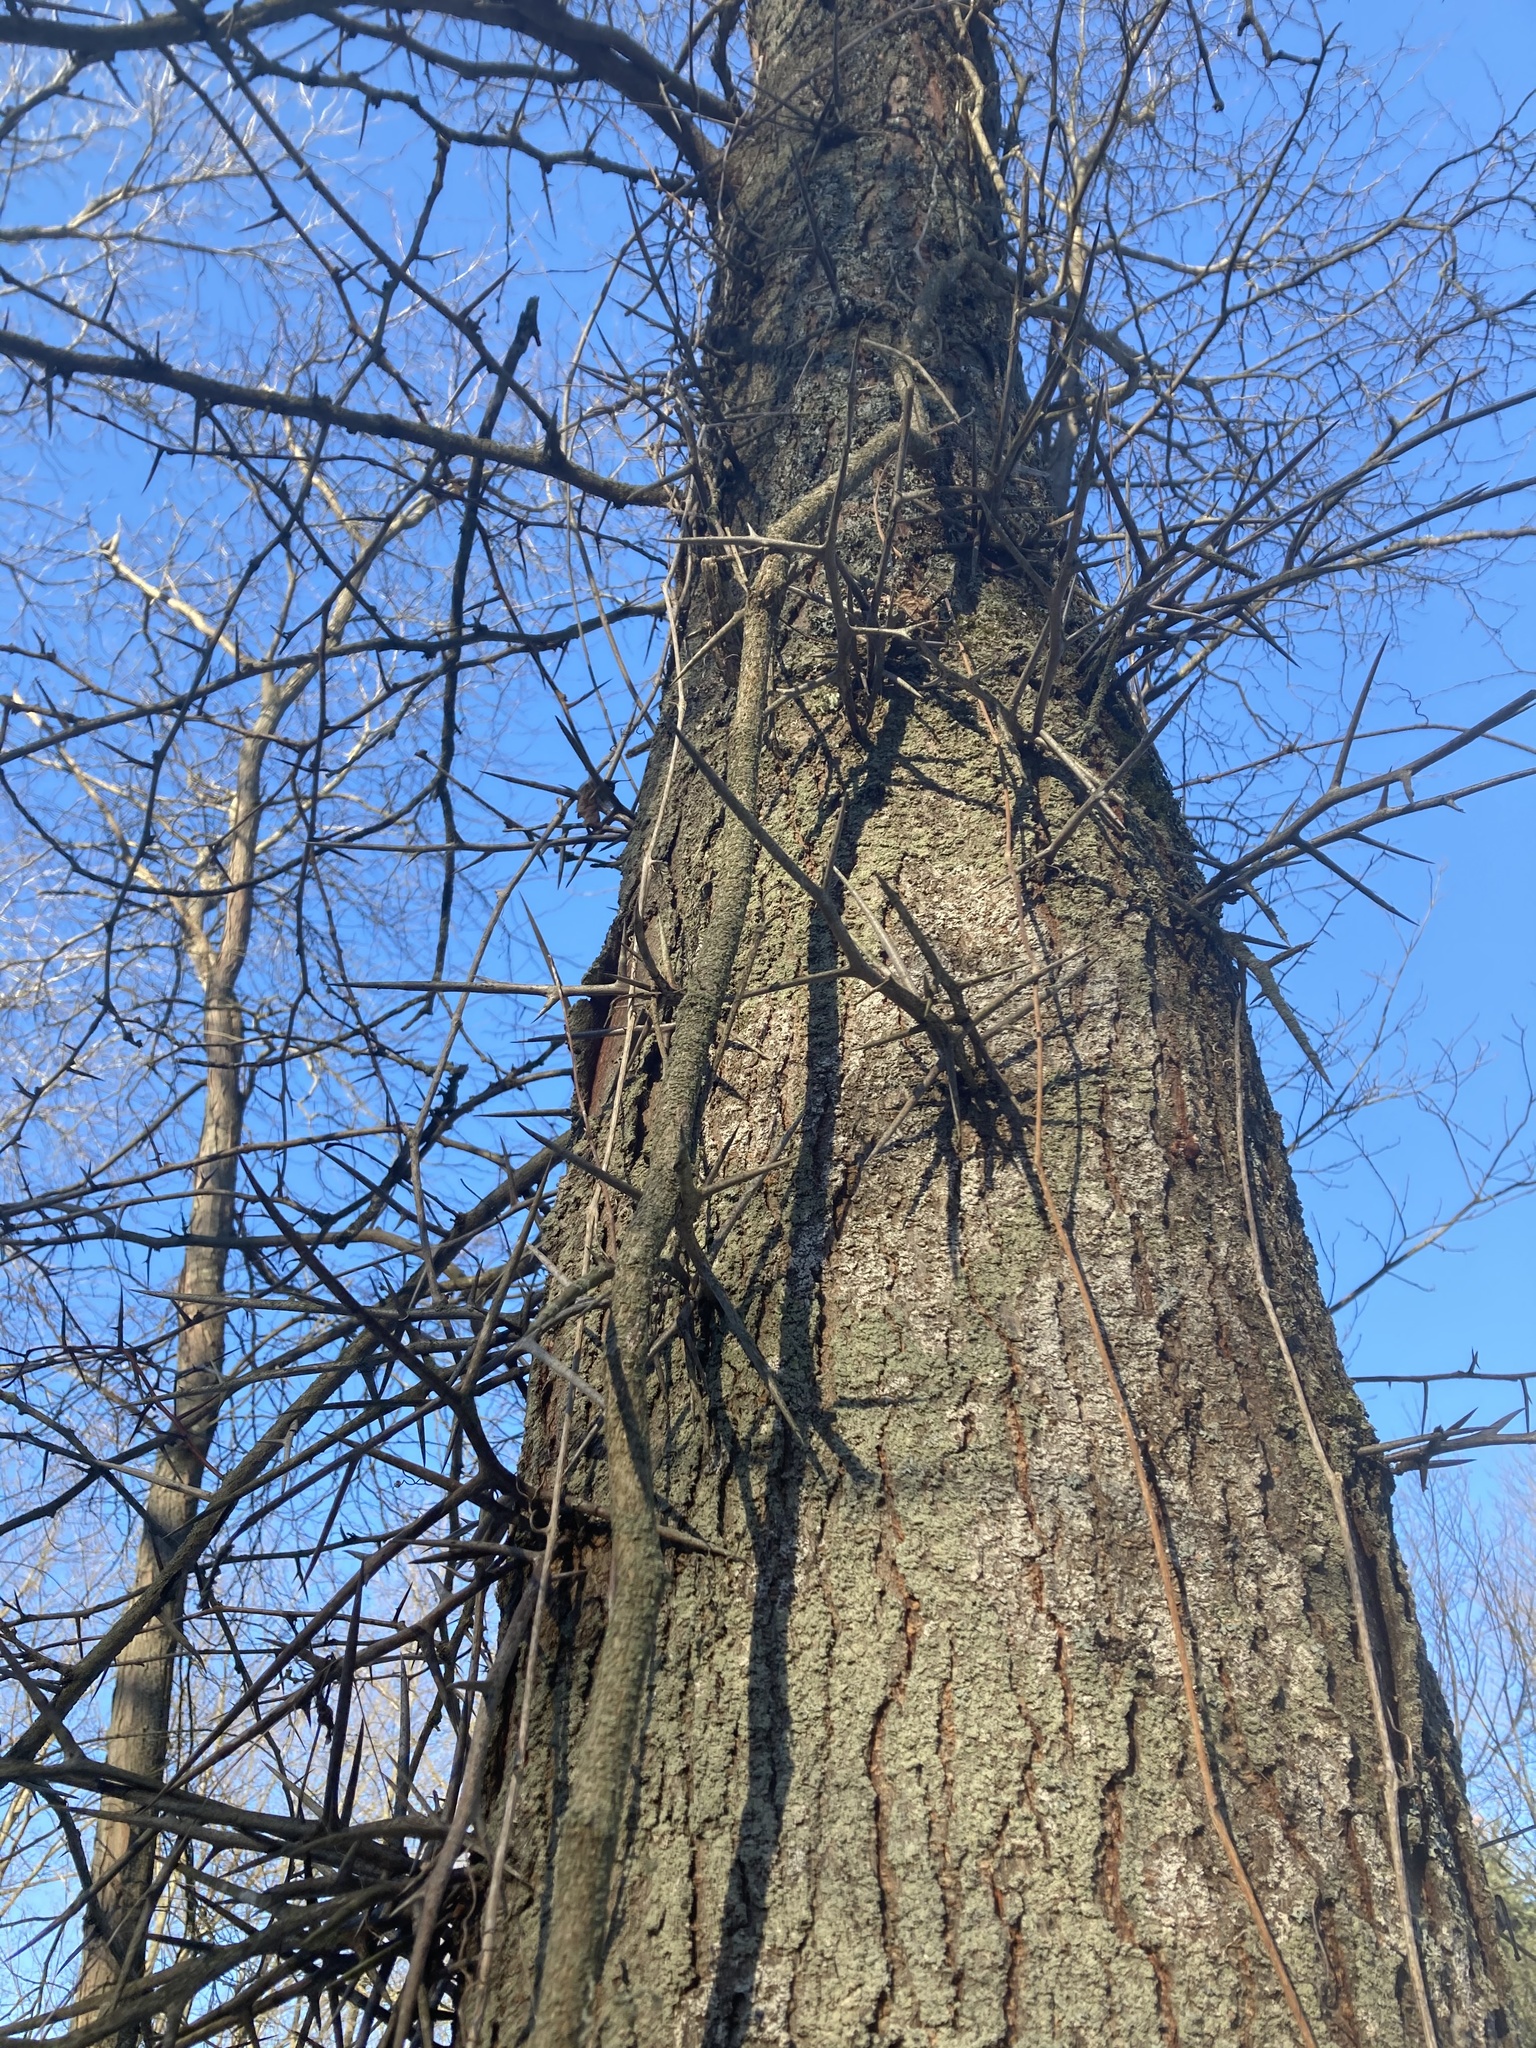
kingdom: Plantae
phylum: Tracheophyta
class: Magnoliopsida
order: Fabales
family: Fabaceae
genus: Gleditsia
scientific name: Gleditsia triacanthos
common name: Common honeylocust
